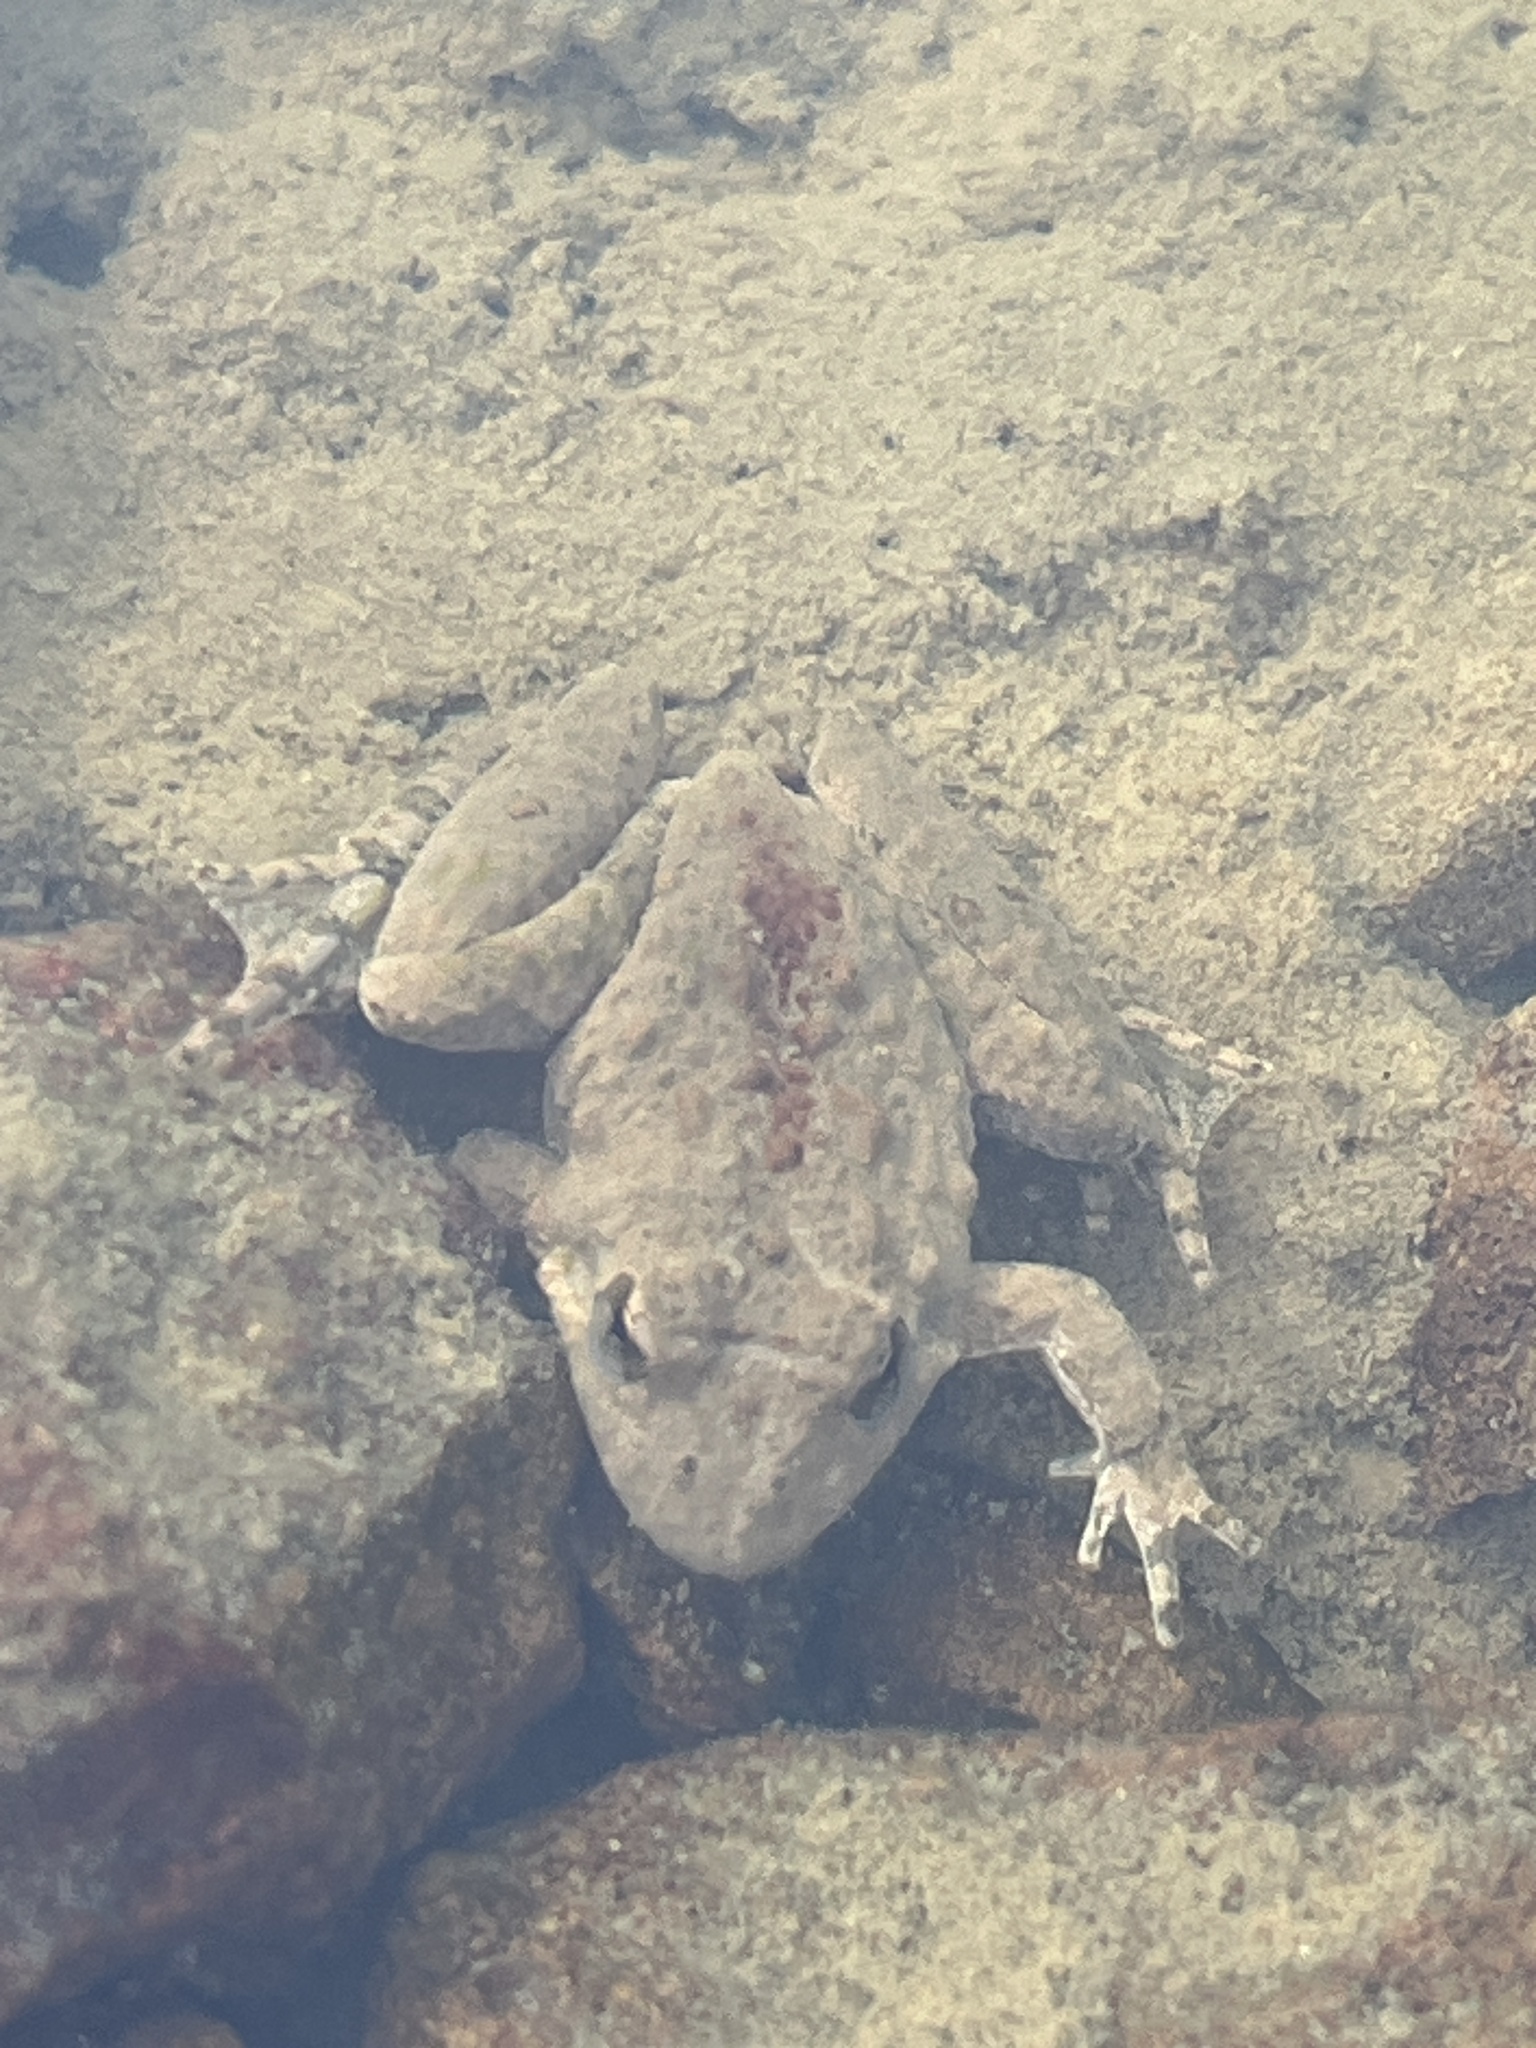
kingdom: Animalia
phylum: Chordata
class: Amphibia
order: Anura
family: Hylidae
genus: Acris
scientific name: Acris blanchardi
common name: Blanchard's cricket frog
